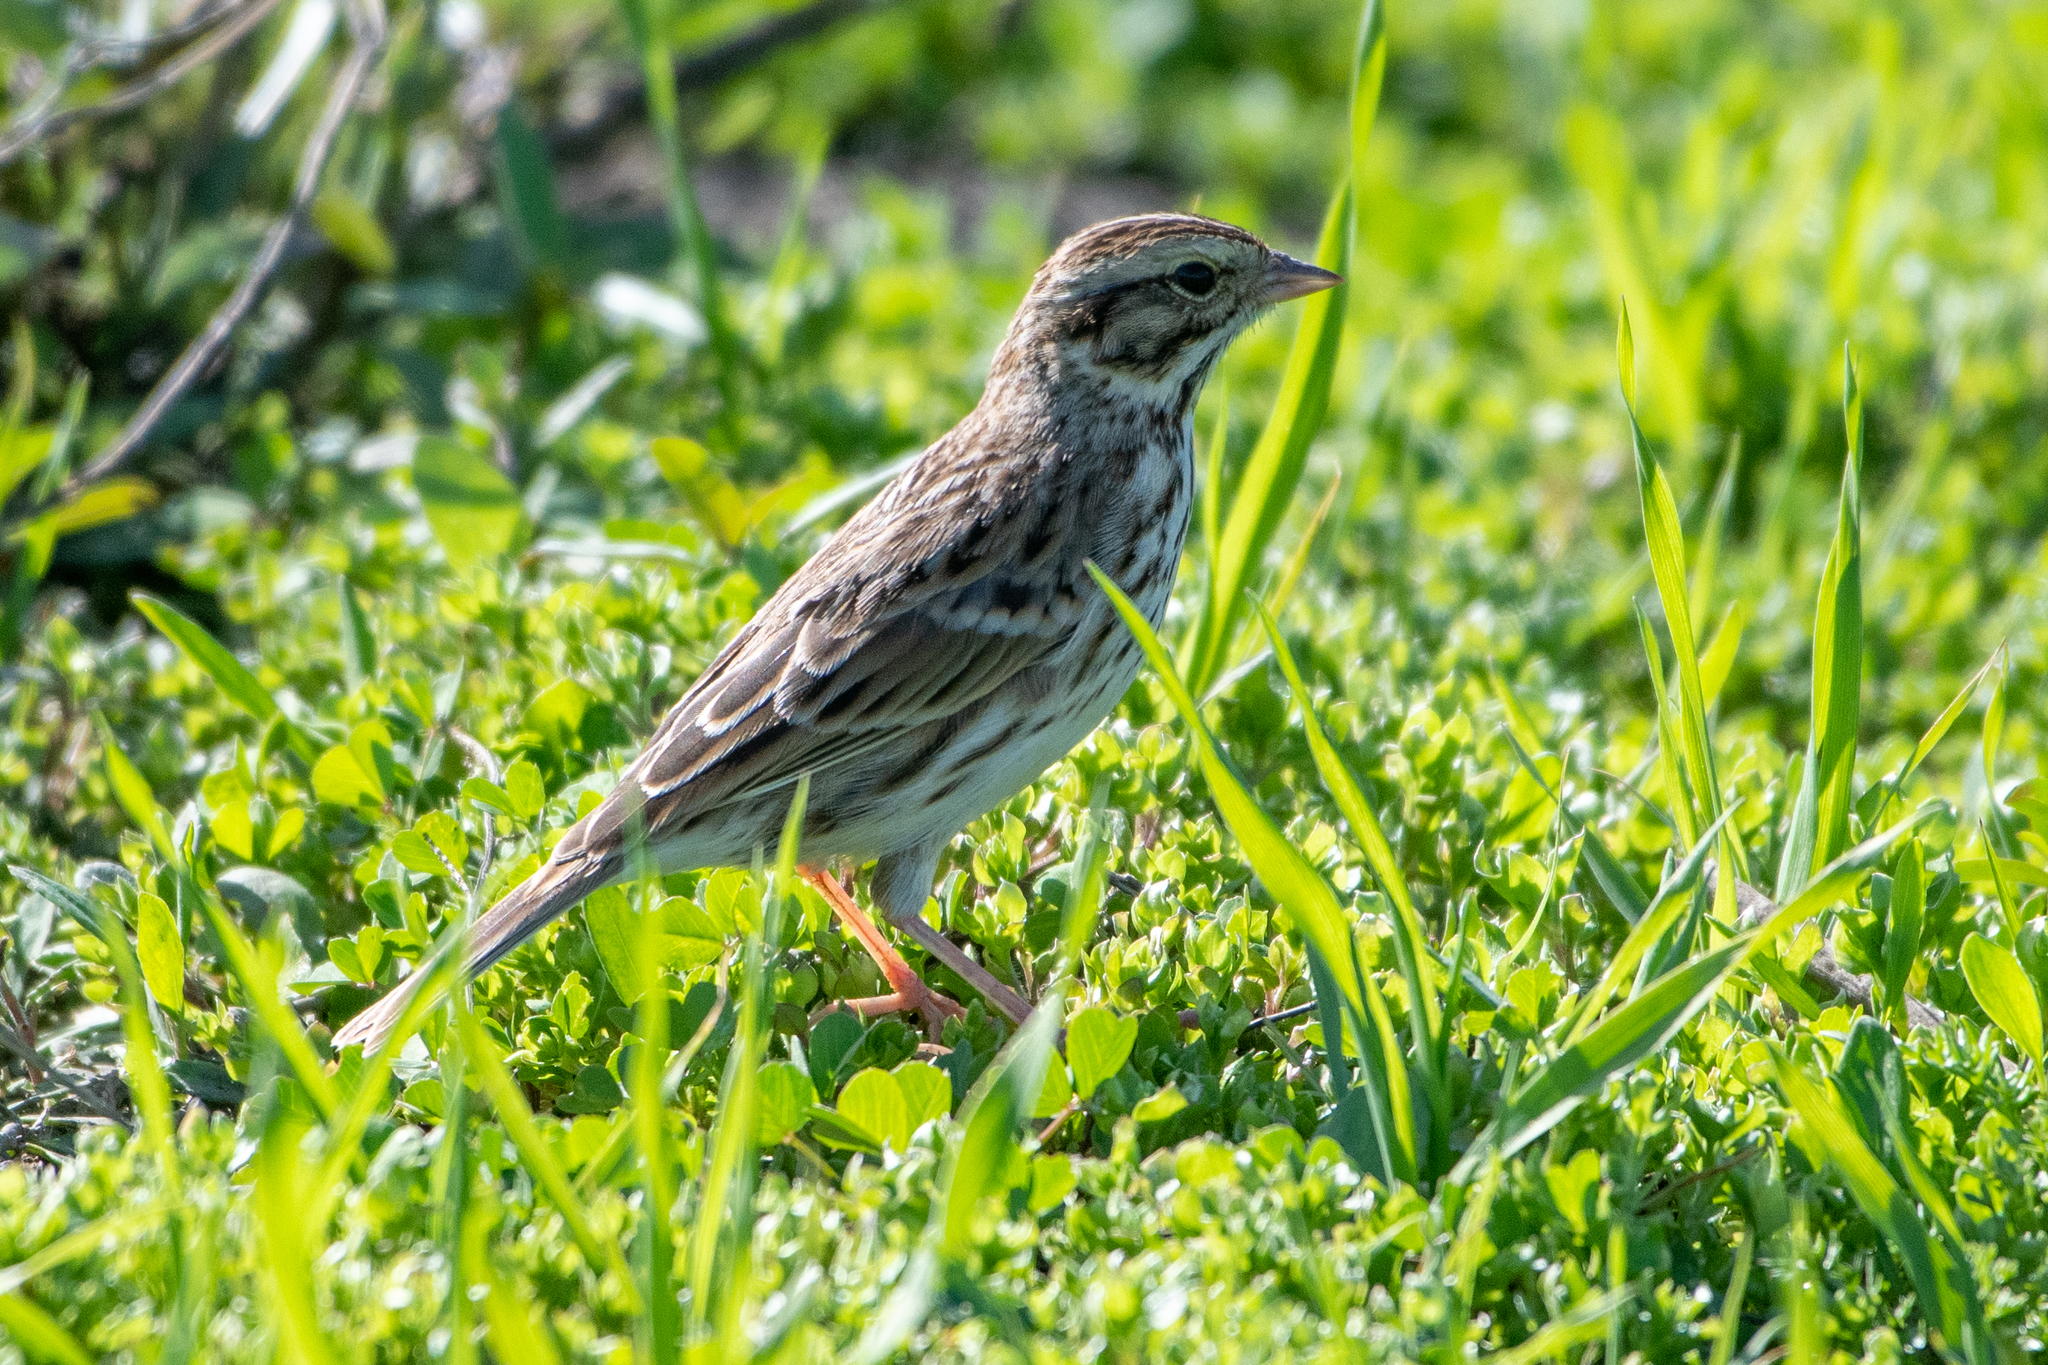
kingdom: Animalia
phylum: Chordata
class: Aves
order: Passeriformes
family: Passerellidae
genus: Passerculus
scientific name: Passerculus sandwichensis
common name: Savannah sparrow
